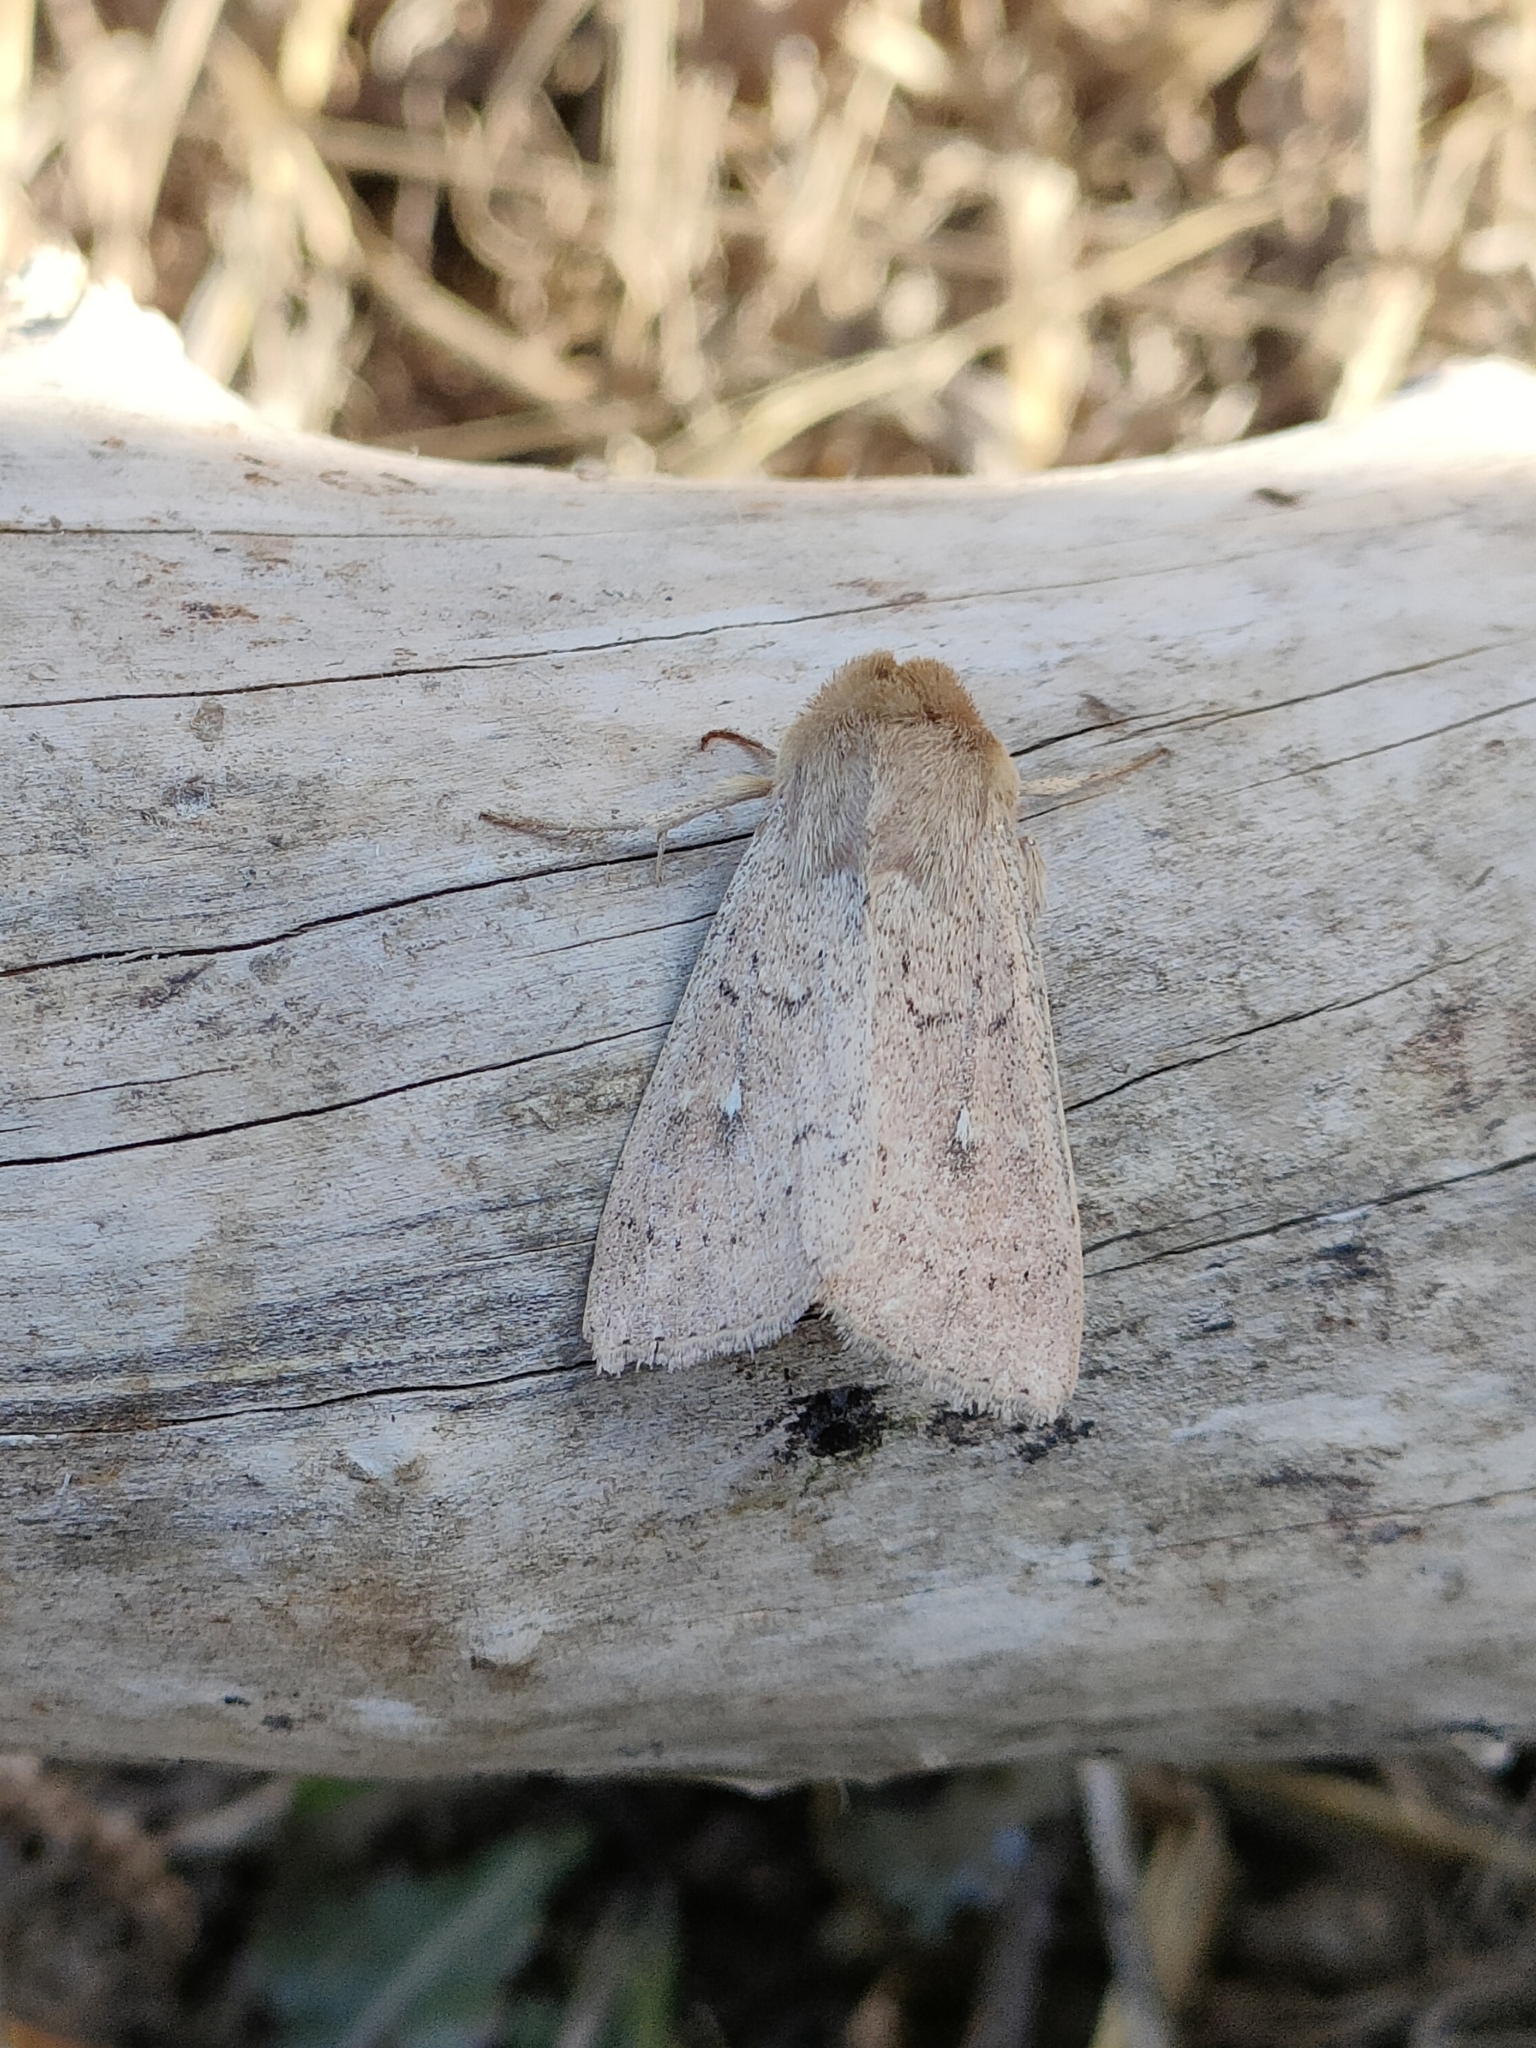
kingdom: Animalia
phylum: Arthropoda
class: Insecta
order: Lepidoptera
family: Noctuidae
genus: Mythimna
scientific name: Mythimna ferrago
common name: Clay
